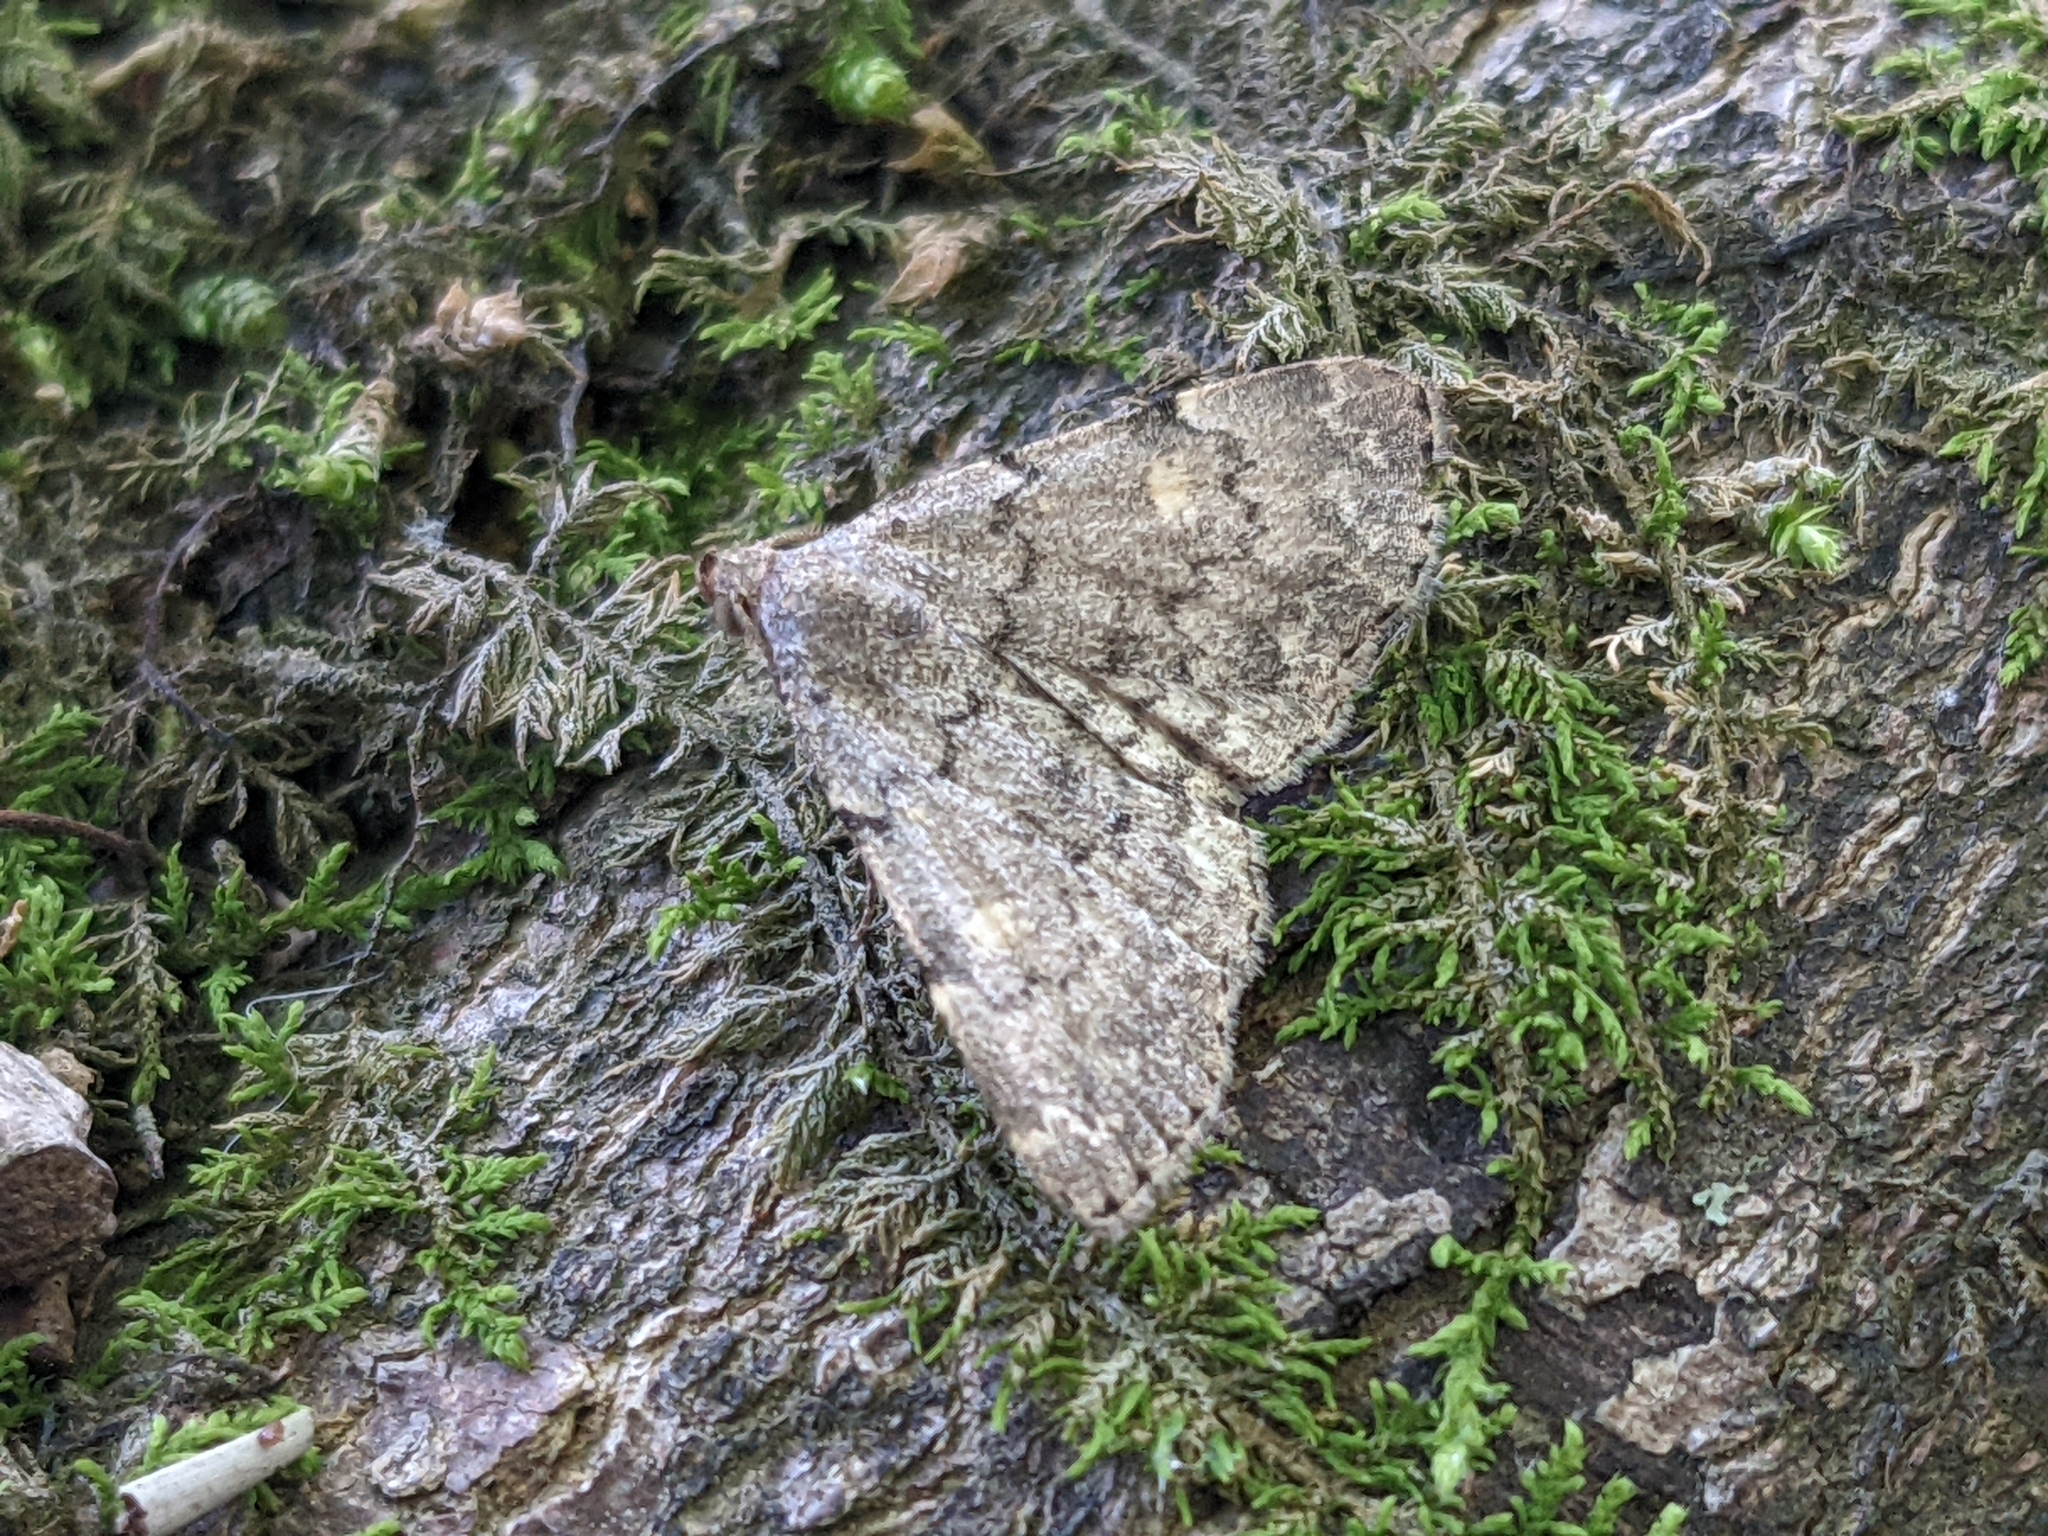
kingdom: Animalia
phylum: Arthropoda
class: Insecta
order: Lepidoptera
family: Erebidae
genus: Idia
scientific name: Idia aemula
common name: Common idia moth
